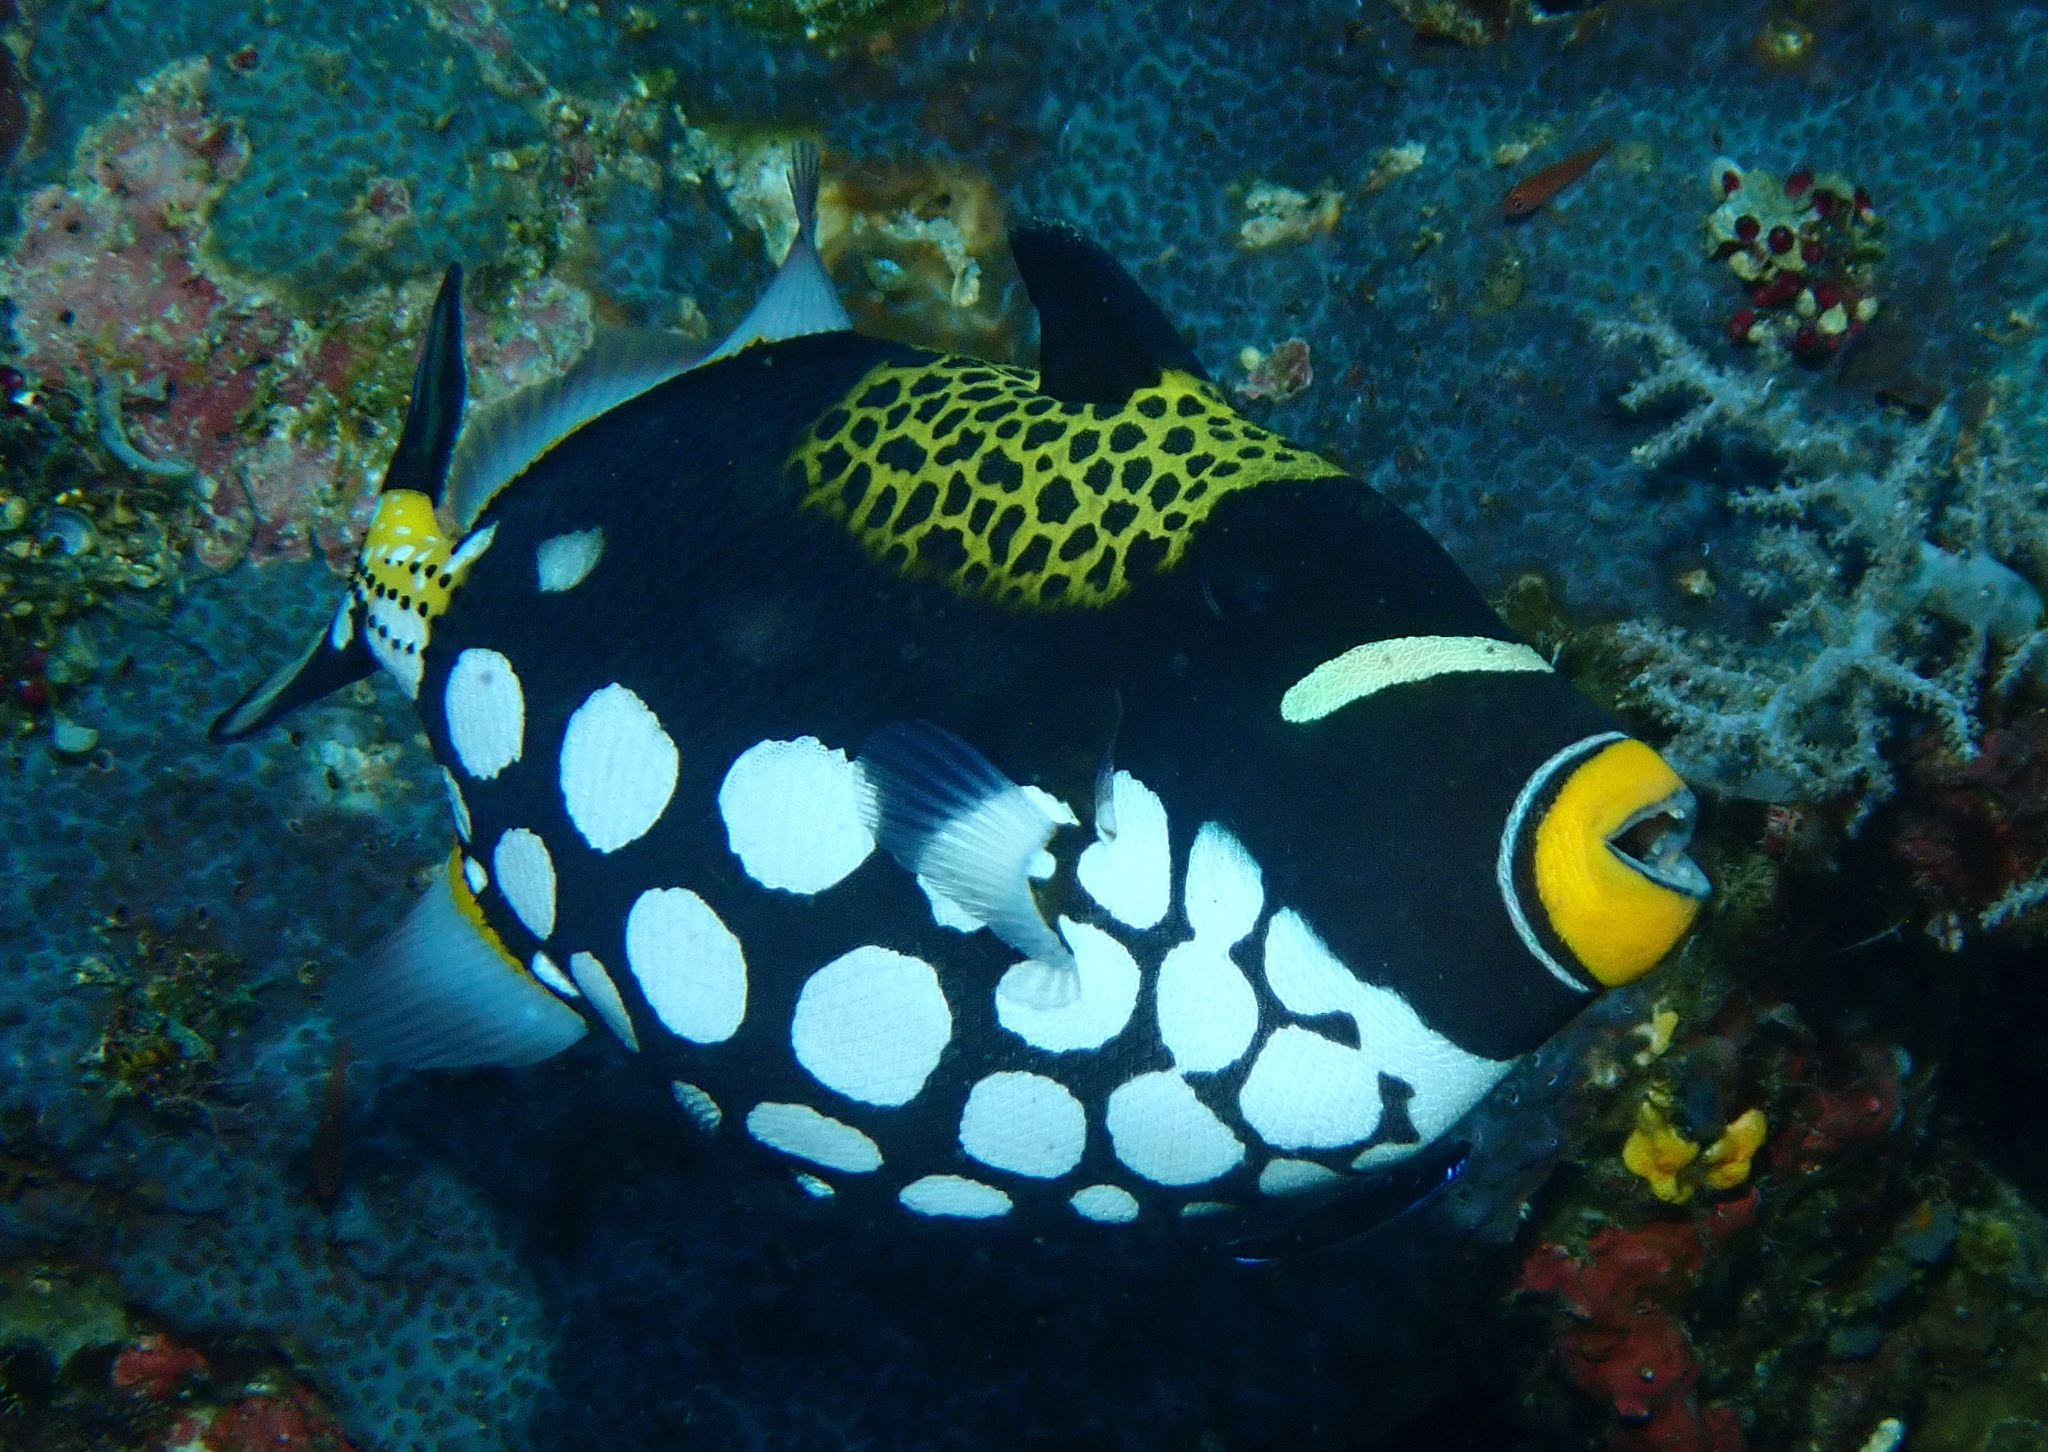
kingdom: Animalia
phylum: Chordata
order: Tetraodontiformes
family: Balistidae
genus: Balistoides
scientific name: Balistoides conspicillum
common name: Clown triggerfish
